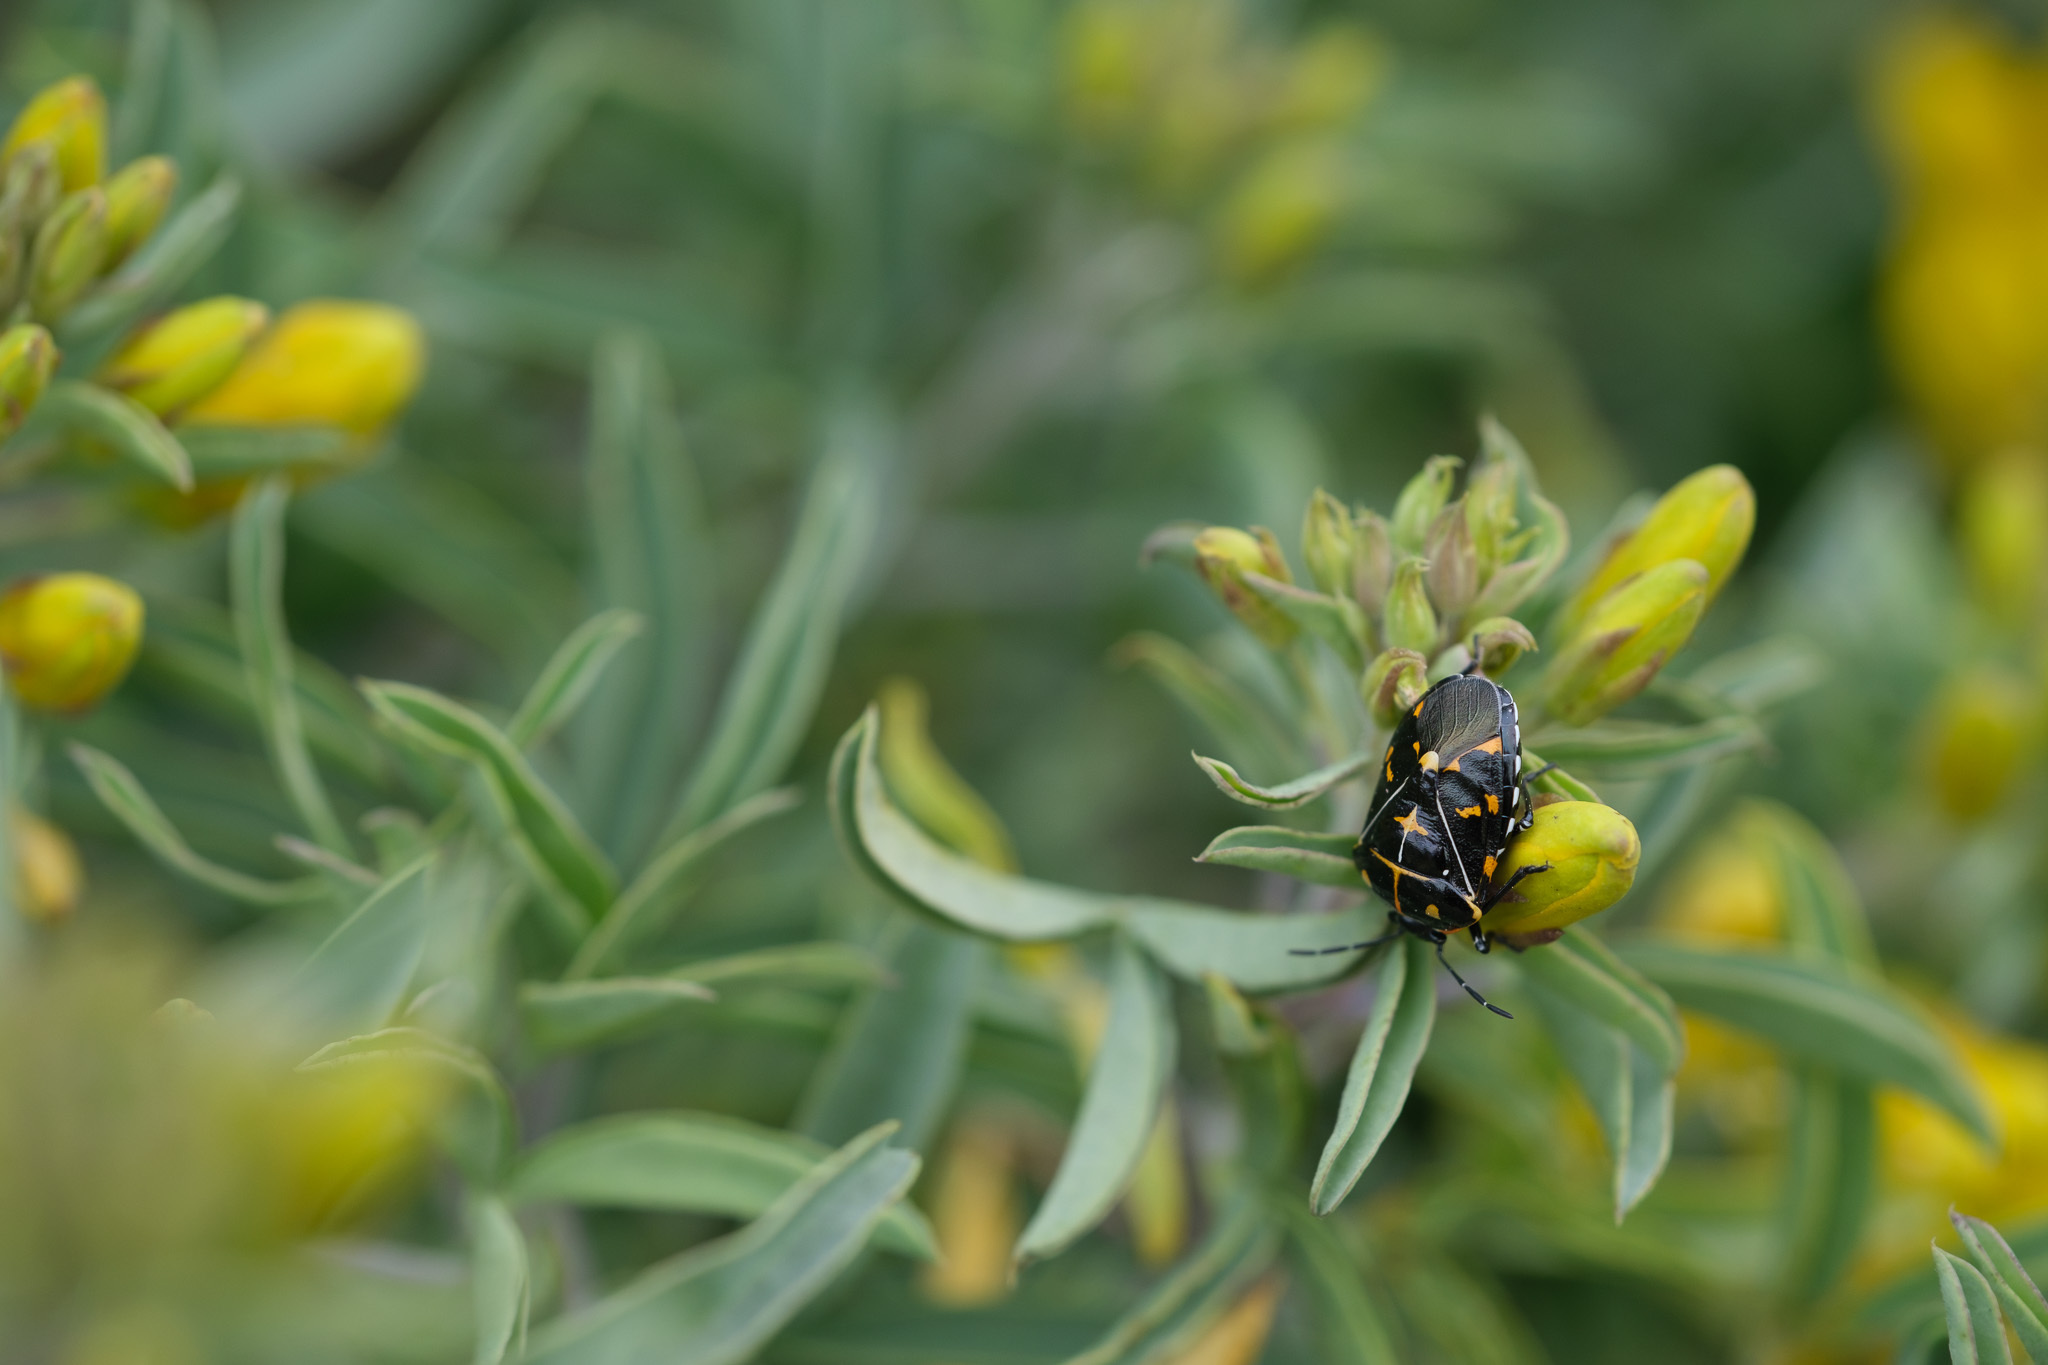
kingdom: Animalia
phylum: Arthropoda
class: Insecta
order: Hemiptera
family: Pentatomidae
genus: Murgantia
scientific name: Murgantia histrionica
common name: Harlequin bug
